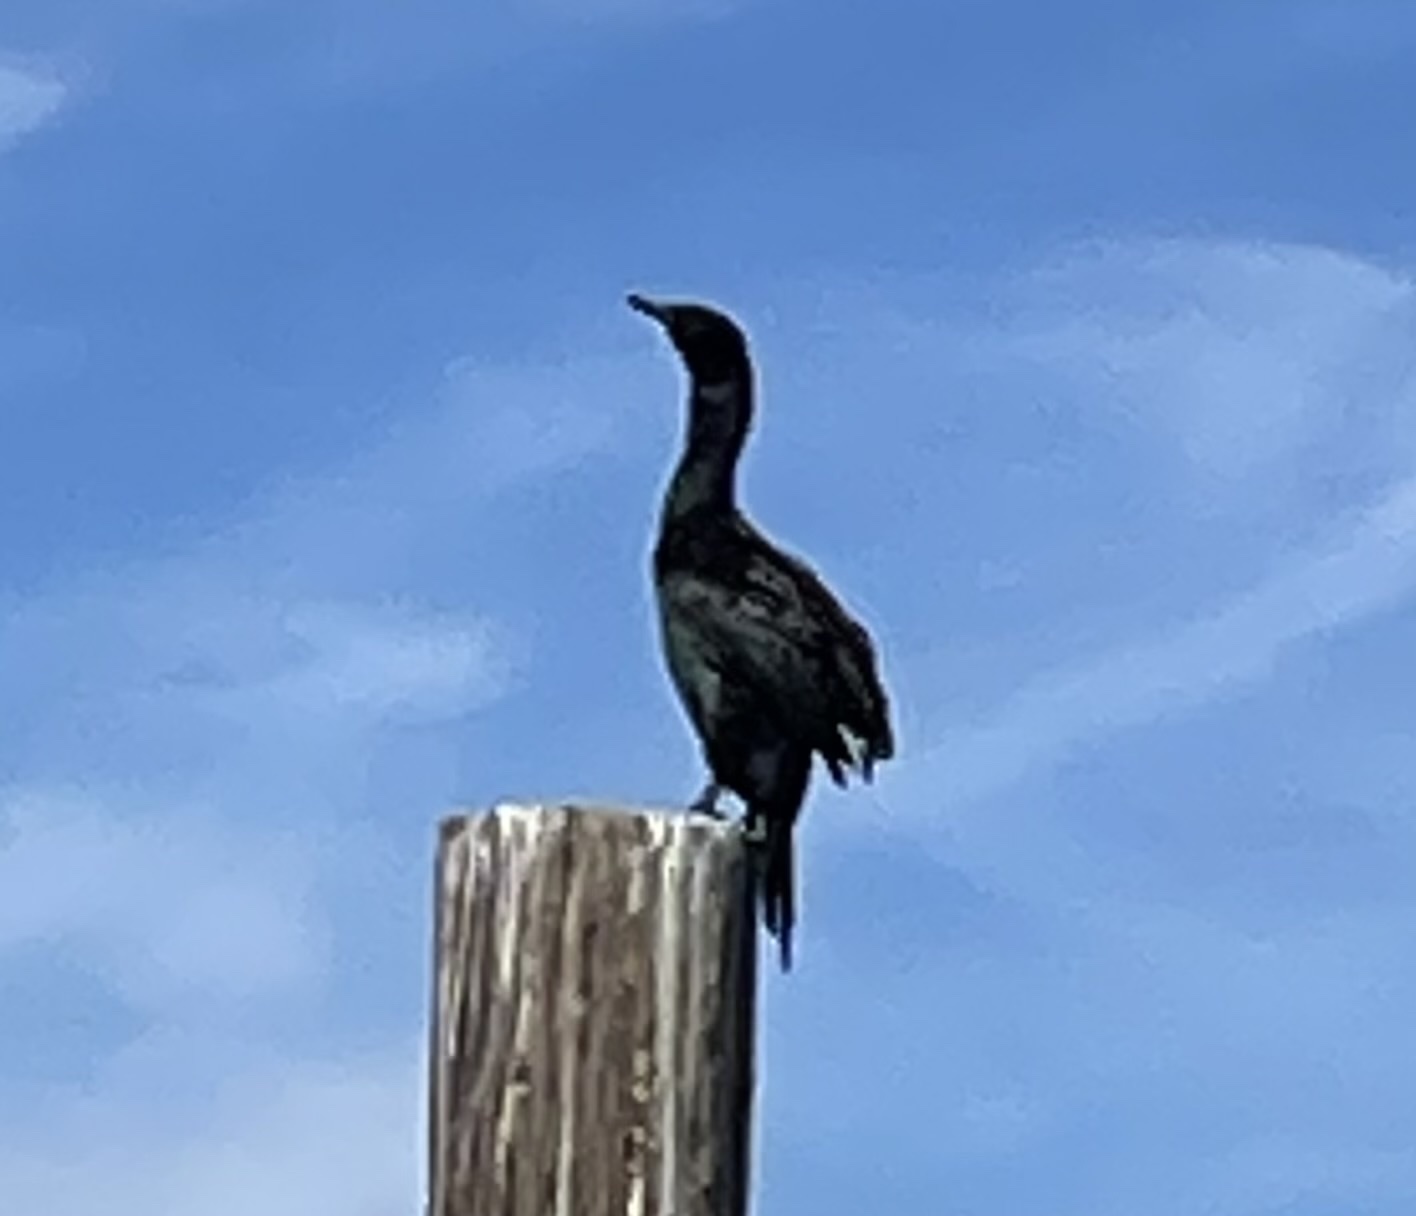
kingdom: Animalia
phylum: Chordata
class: Aves
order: Suliformes
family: Phalacrocoracidae
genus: Phalacrocorax
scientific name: Phalacrocorax pelagicus
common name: Pelagic cormorant
